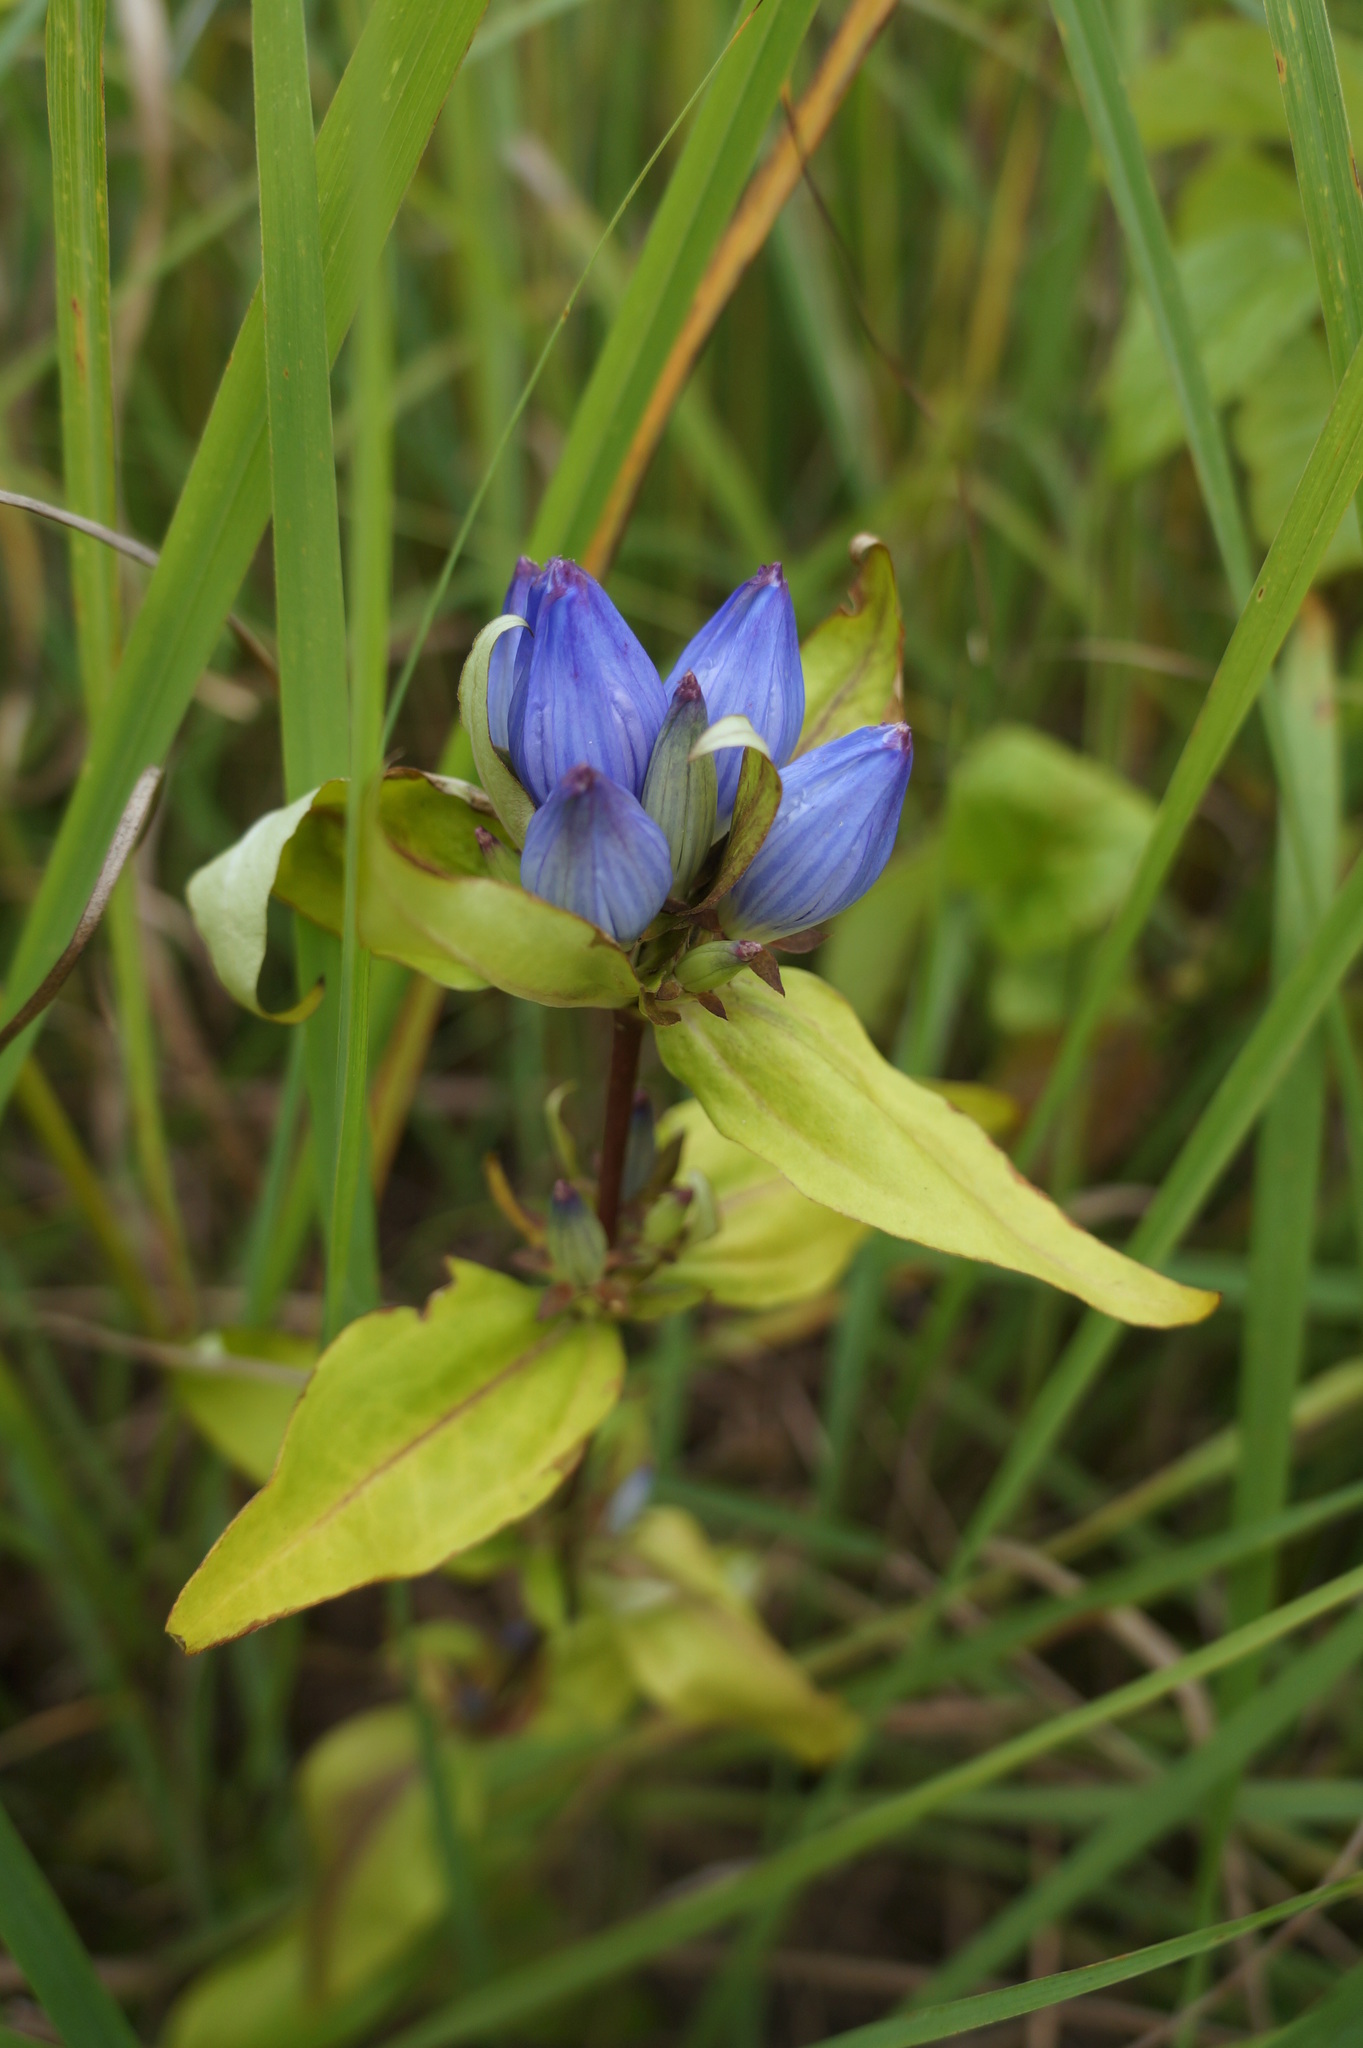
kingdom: Plantae
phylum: Tracheophyta
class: Magnoliopsida
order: Gentianales
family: Gentianaceae
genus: Gentiana
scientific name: Gentiana andrewsii
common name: Bottle gentian
